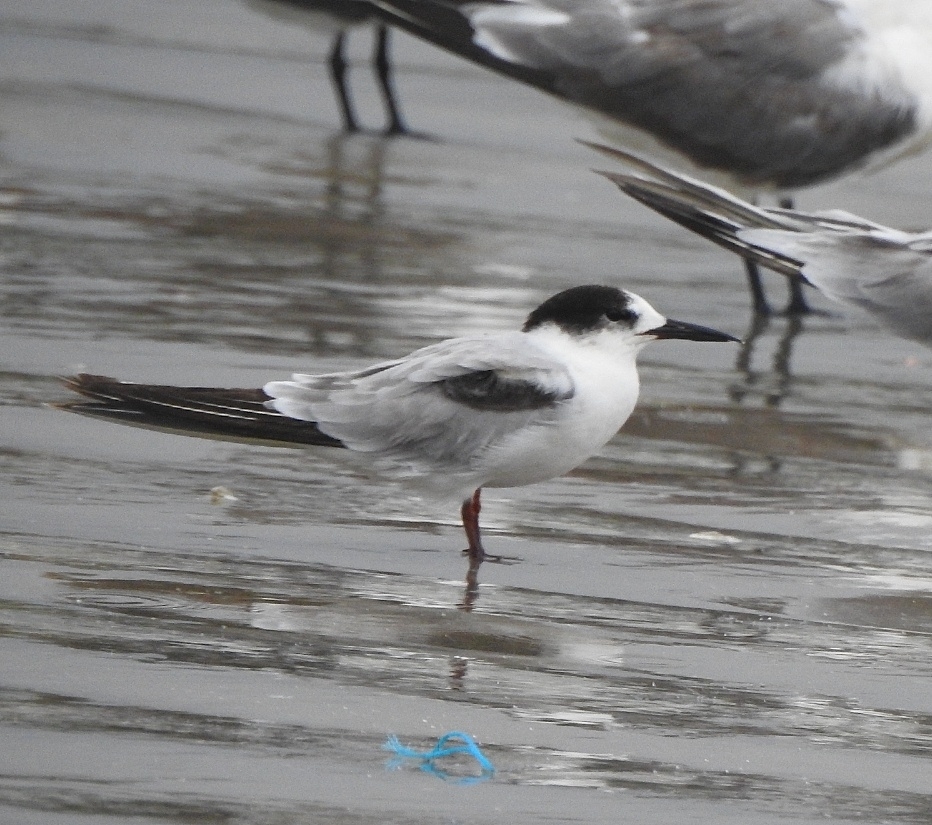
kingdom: Animalia
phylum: Chordata
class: Aves
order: Charadriiformes
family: Laridae
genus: Sterna
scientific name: Sterna hirundo
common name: Common tern
